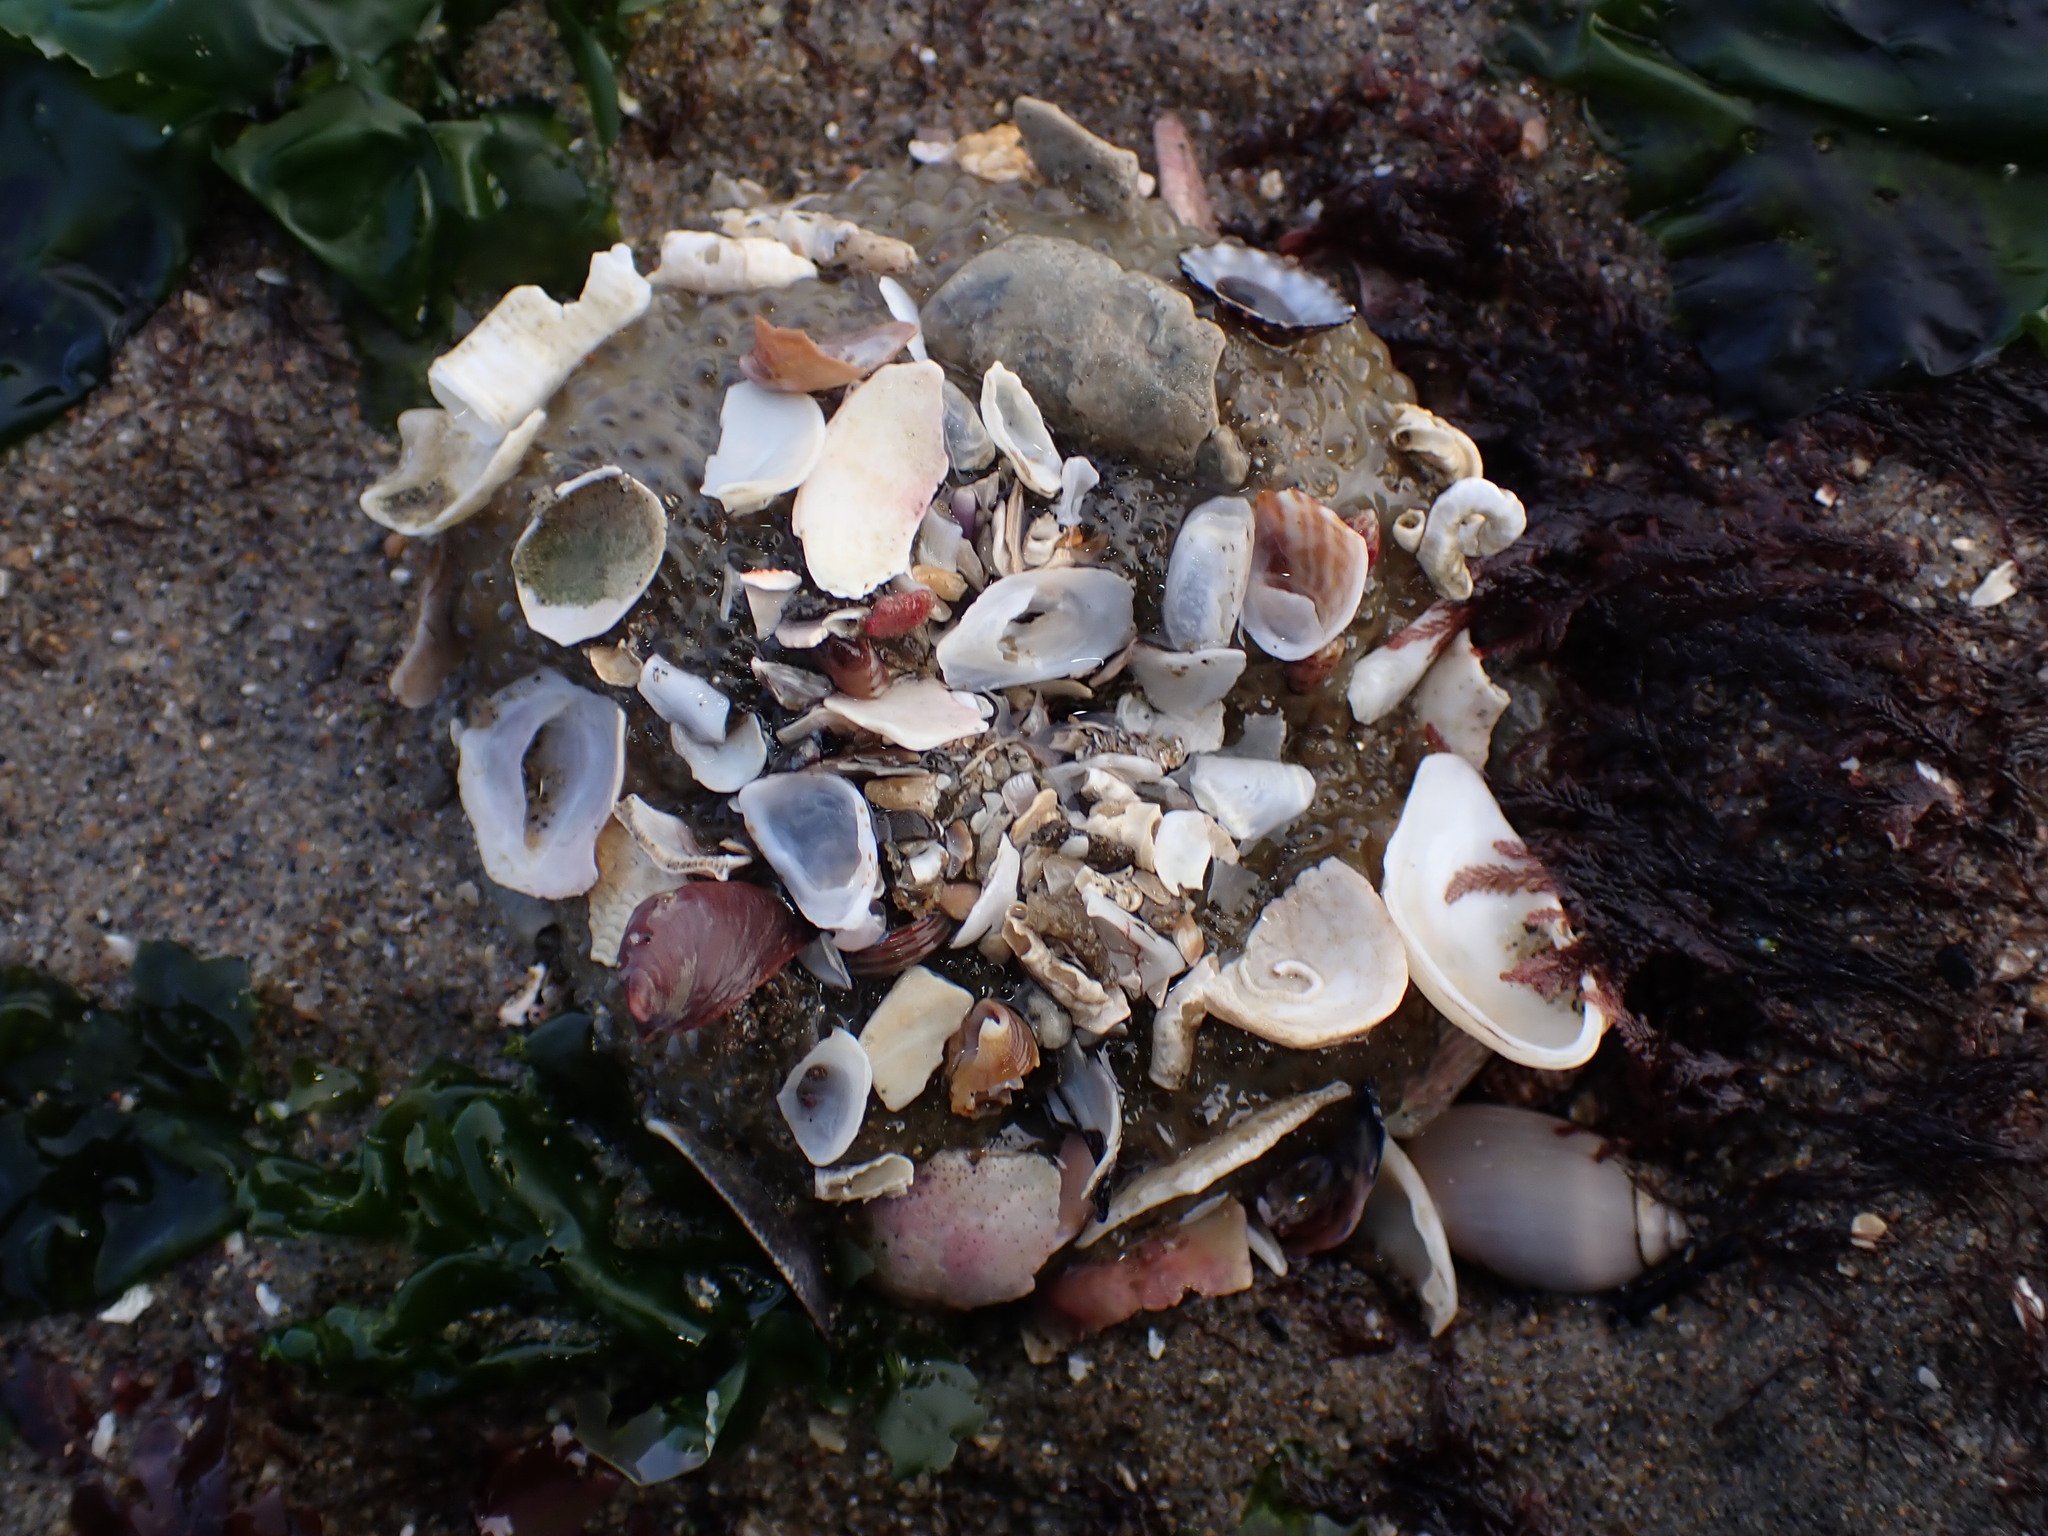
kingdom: Animalia
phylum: Mollusca
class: Gastropoda
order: Littorinimorpha
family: Naticidae
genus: Glossaulax
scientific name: Glossaulax reclusiana
